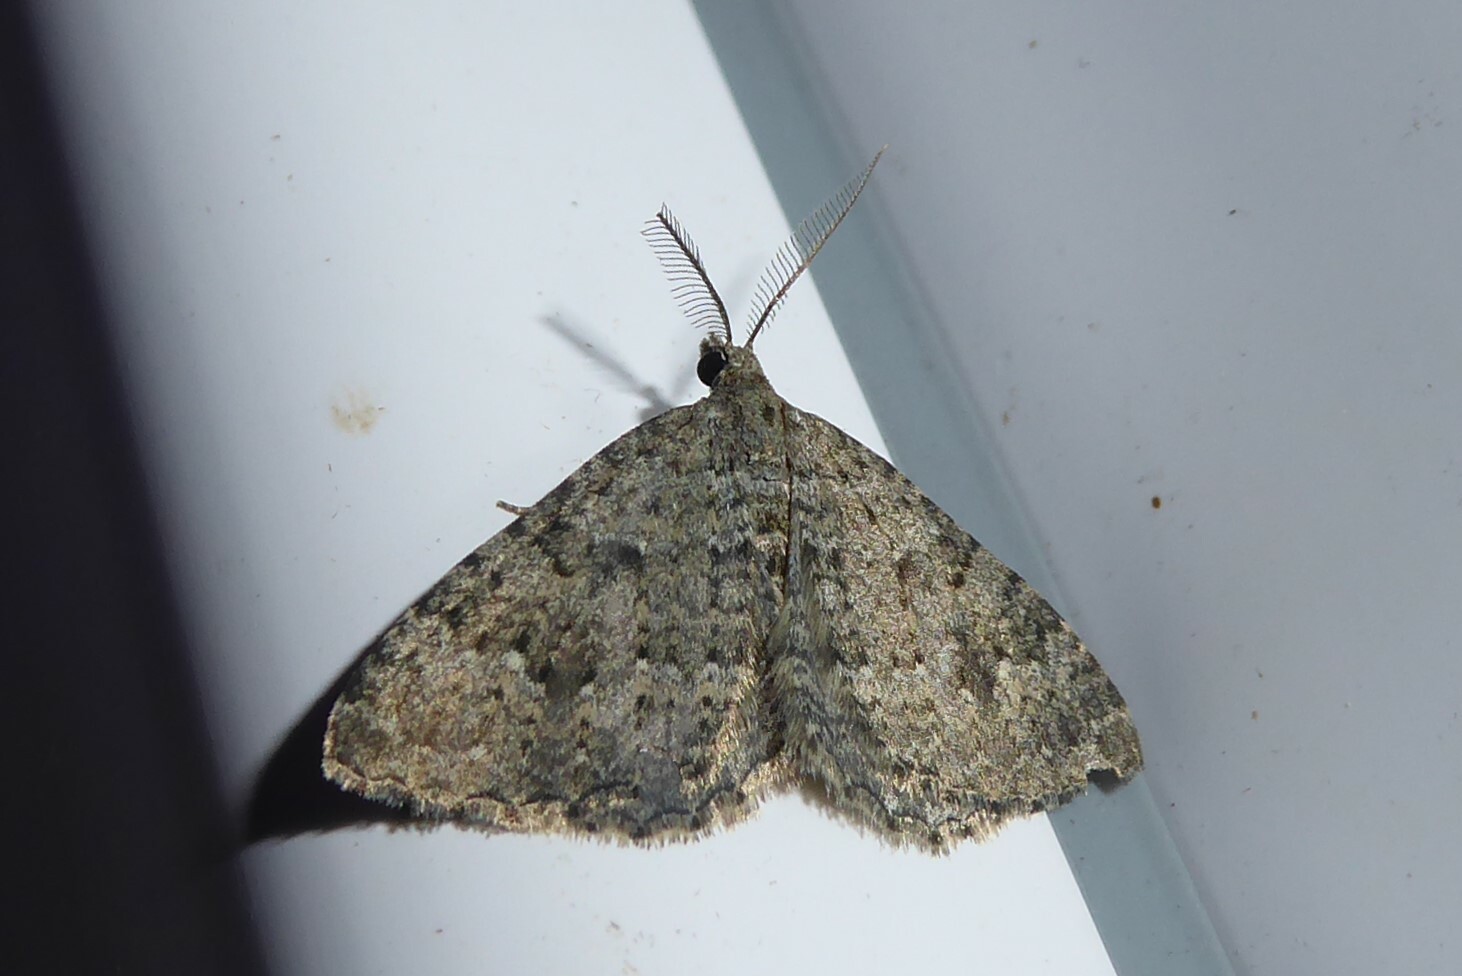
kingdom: Animalia
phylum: Arthropoda
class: Insecta
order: Lepidoptera
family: Geometridae
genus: Helastia
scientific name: Helastia corcularia
